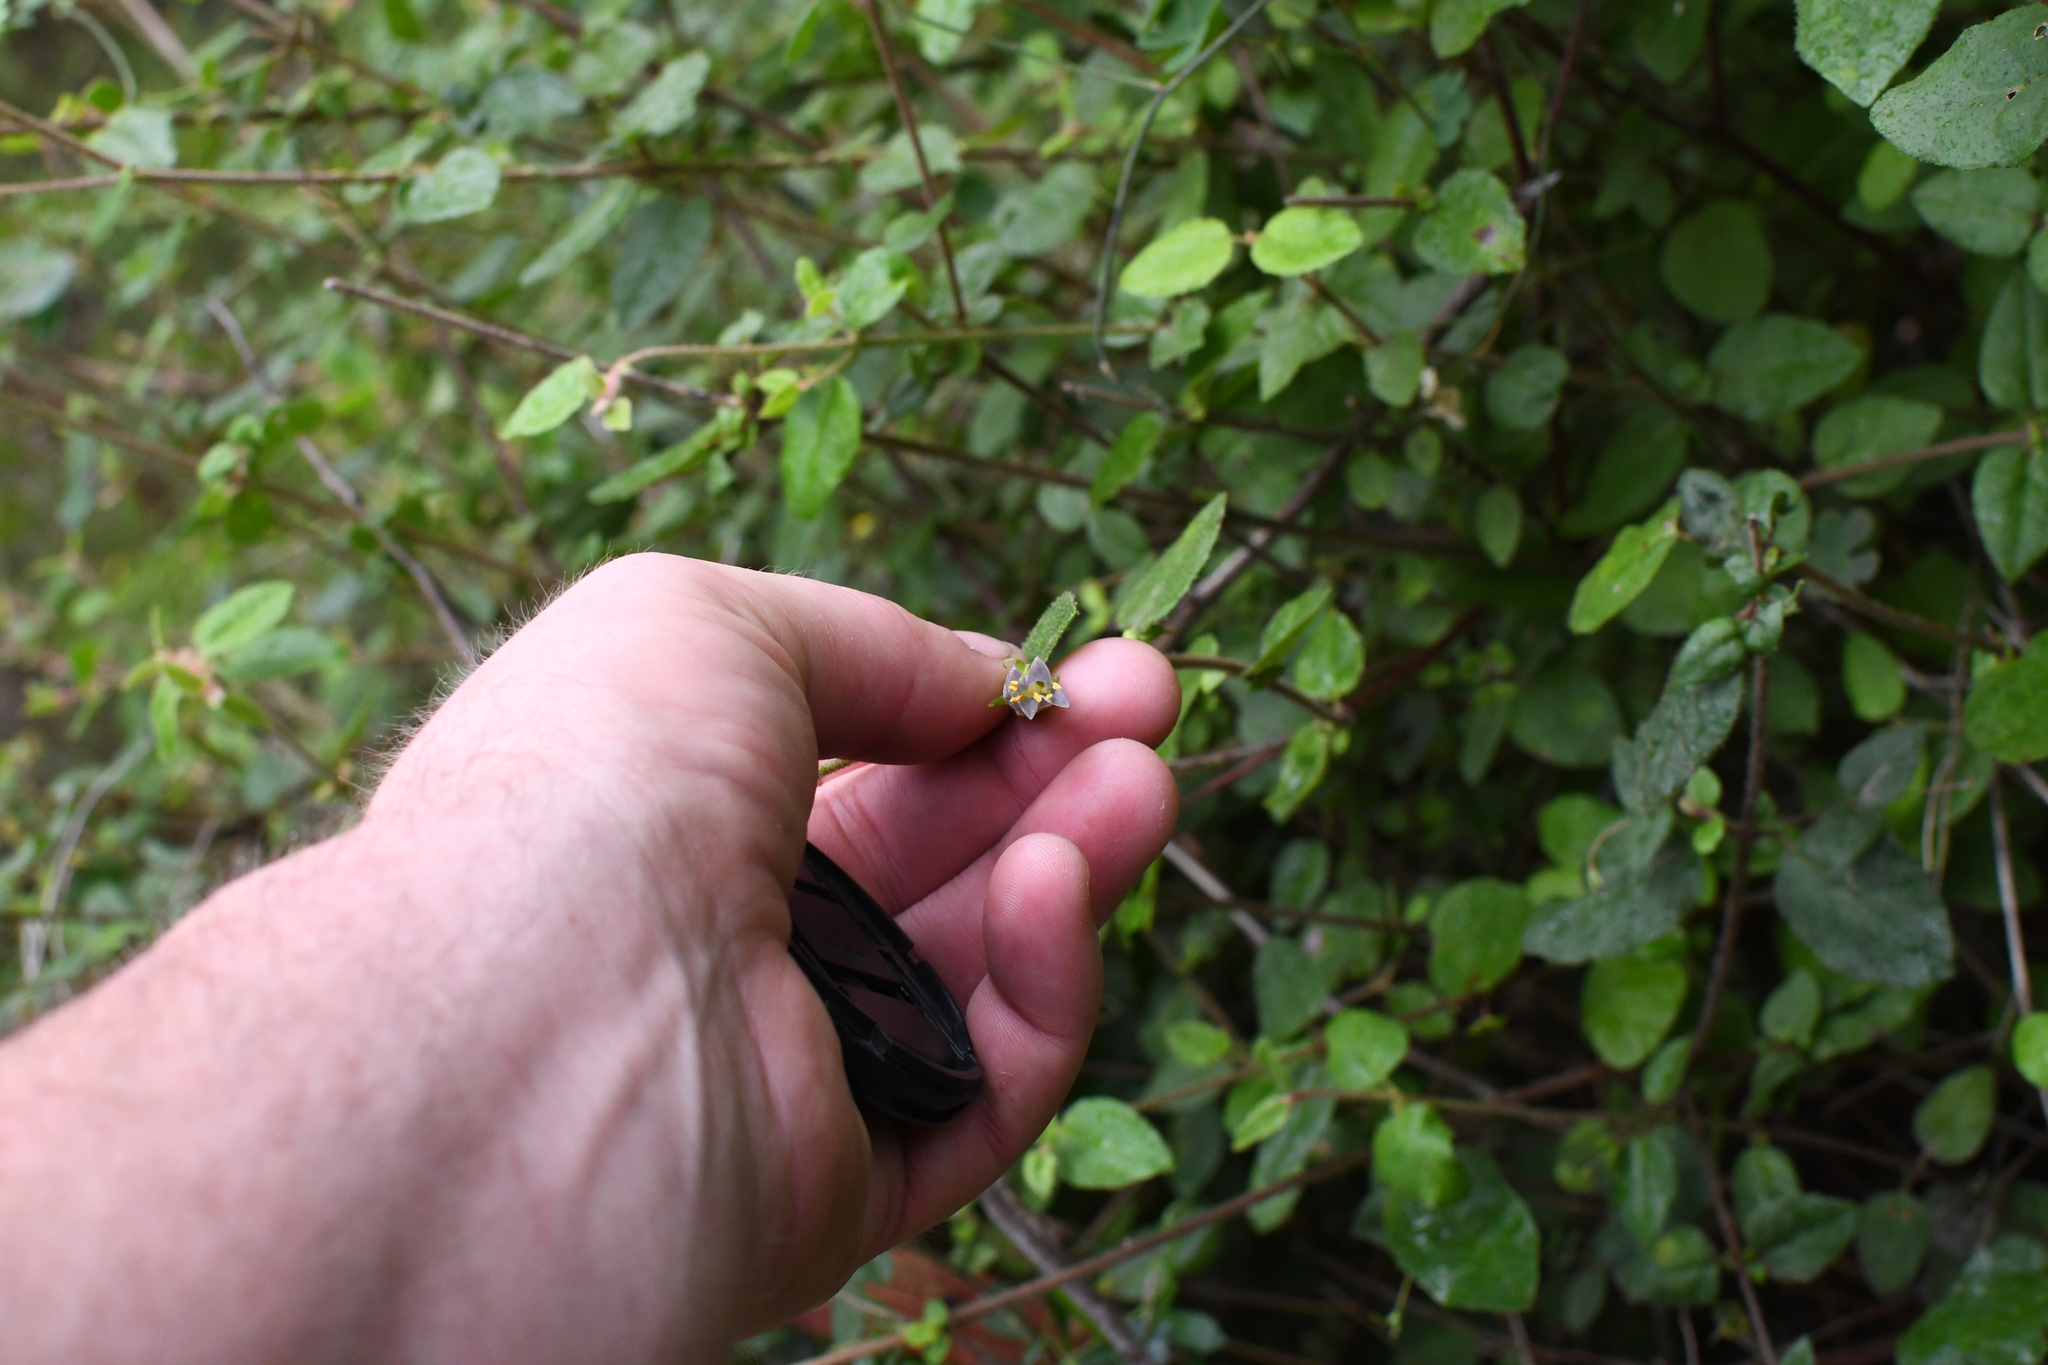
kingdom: Plantae
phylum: Tracheophyta
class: Magnoliopsida
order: Sapindales
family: Rutaceae
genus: Correa
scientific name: Correa aemula
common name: Hairy correa
